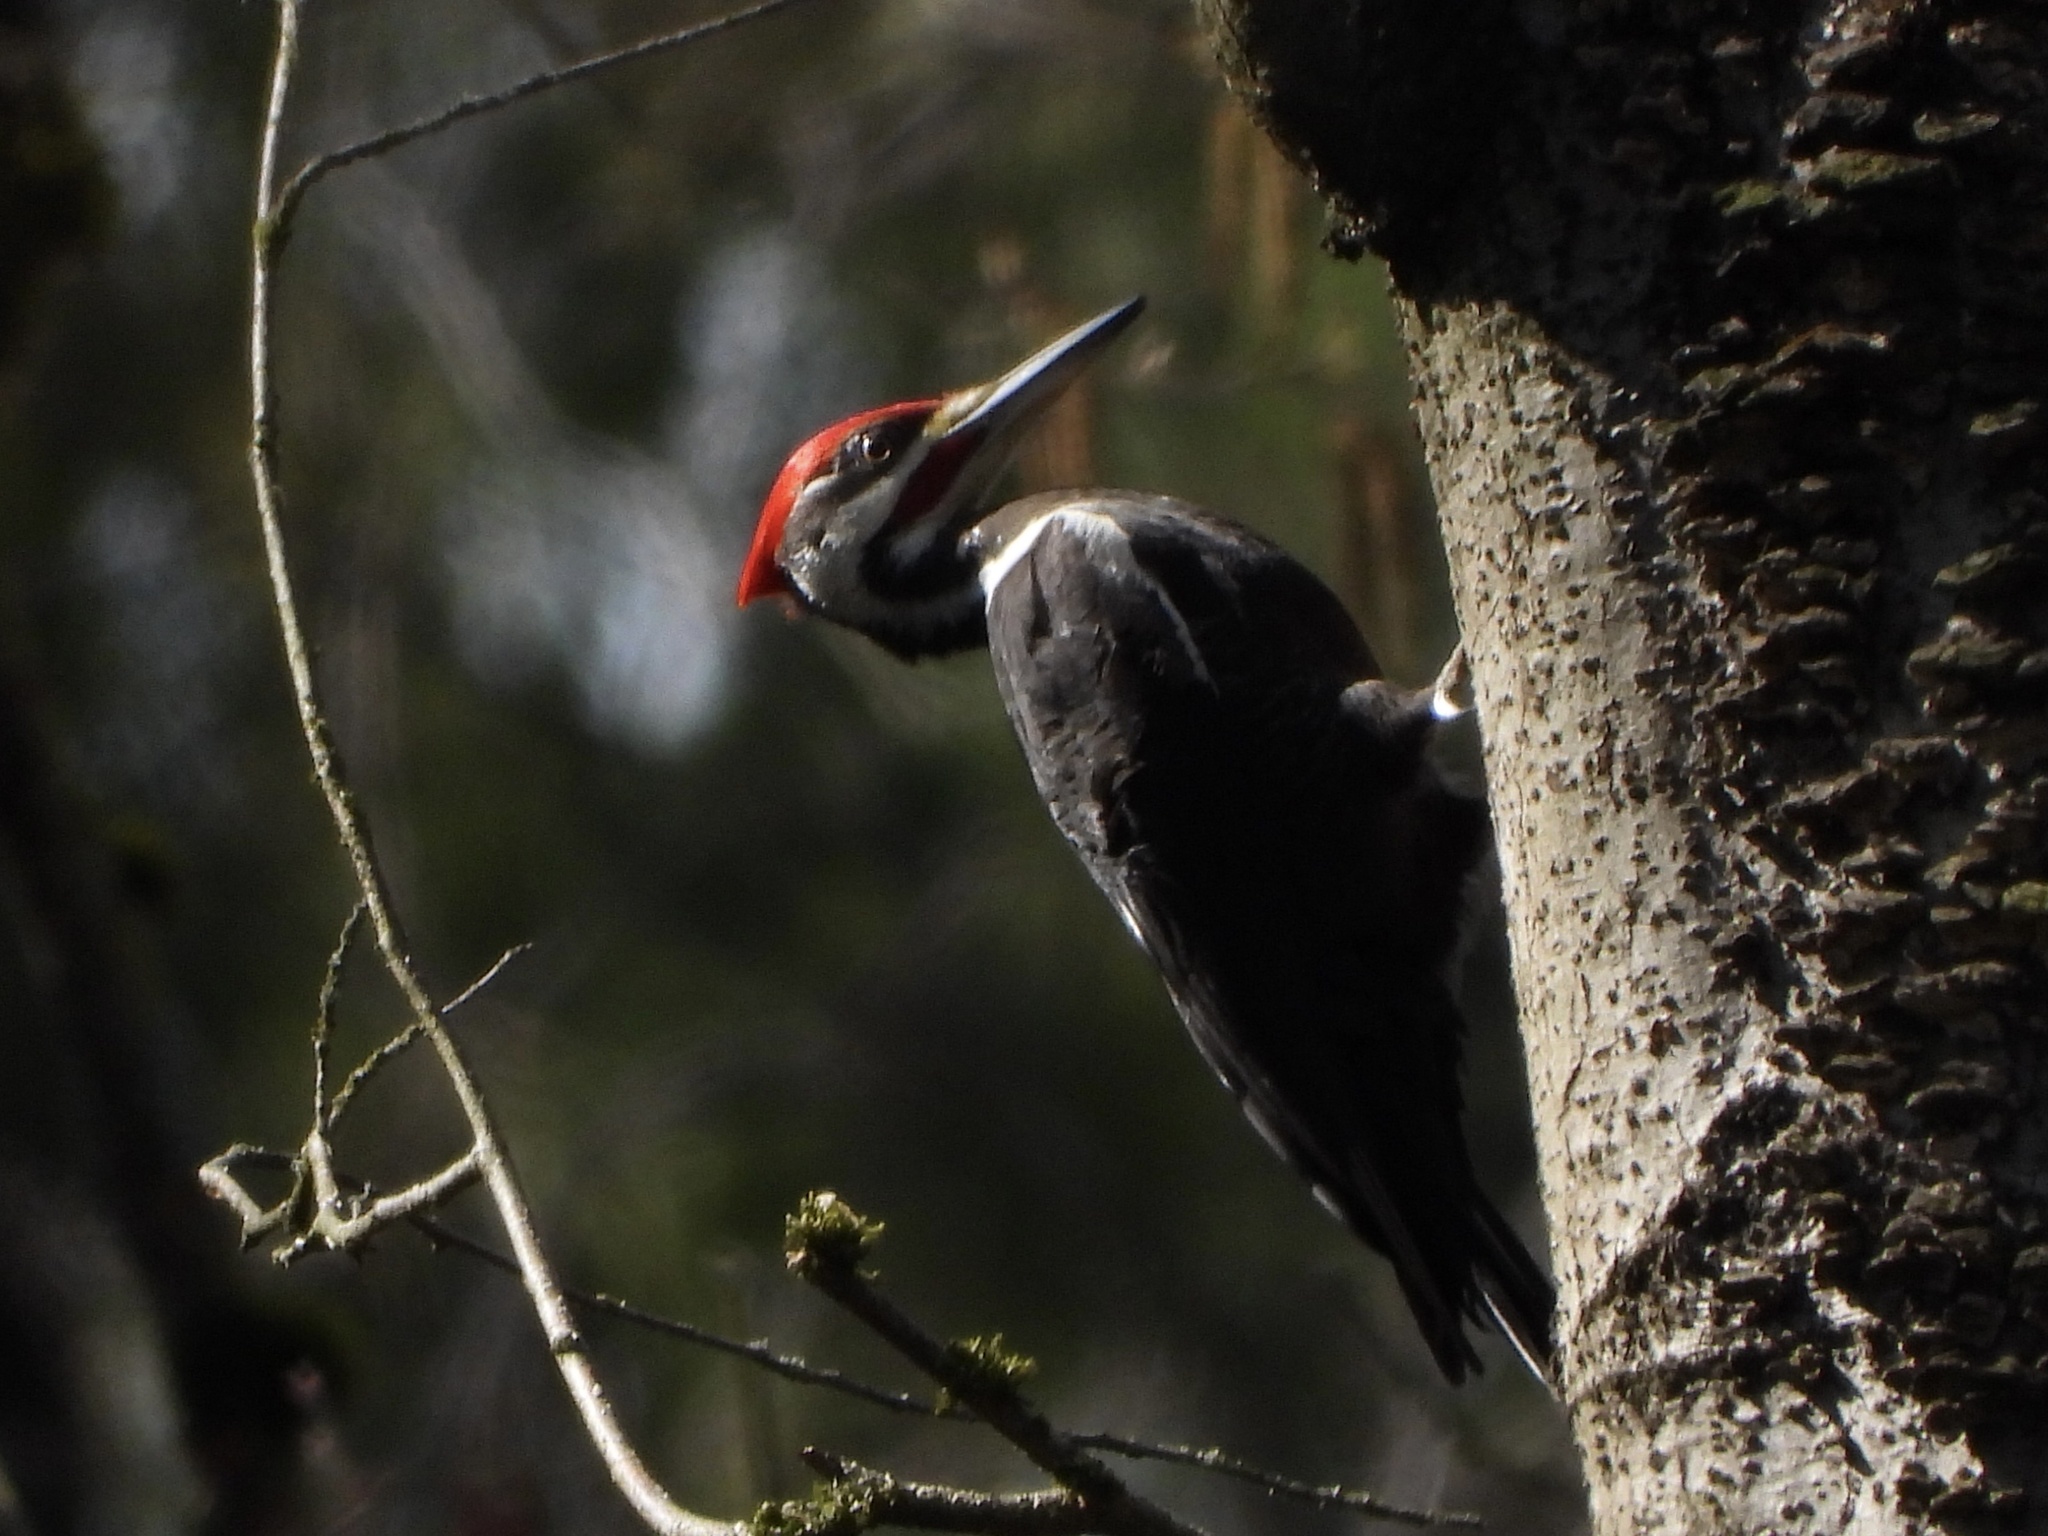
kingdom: Animalia
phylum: Chordata
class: Aves
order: Piciformes
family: Picidae
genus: Dryocopus
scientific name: Dryocopus pileatus
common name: Pileated woodpecker
